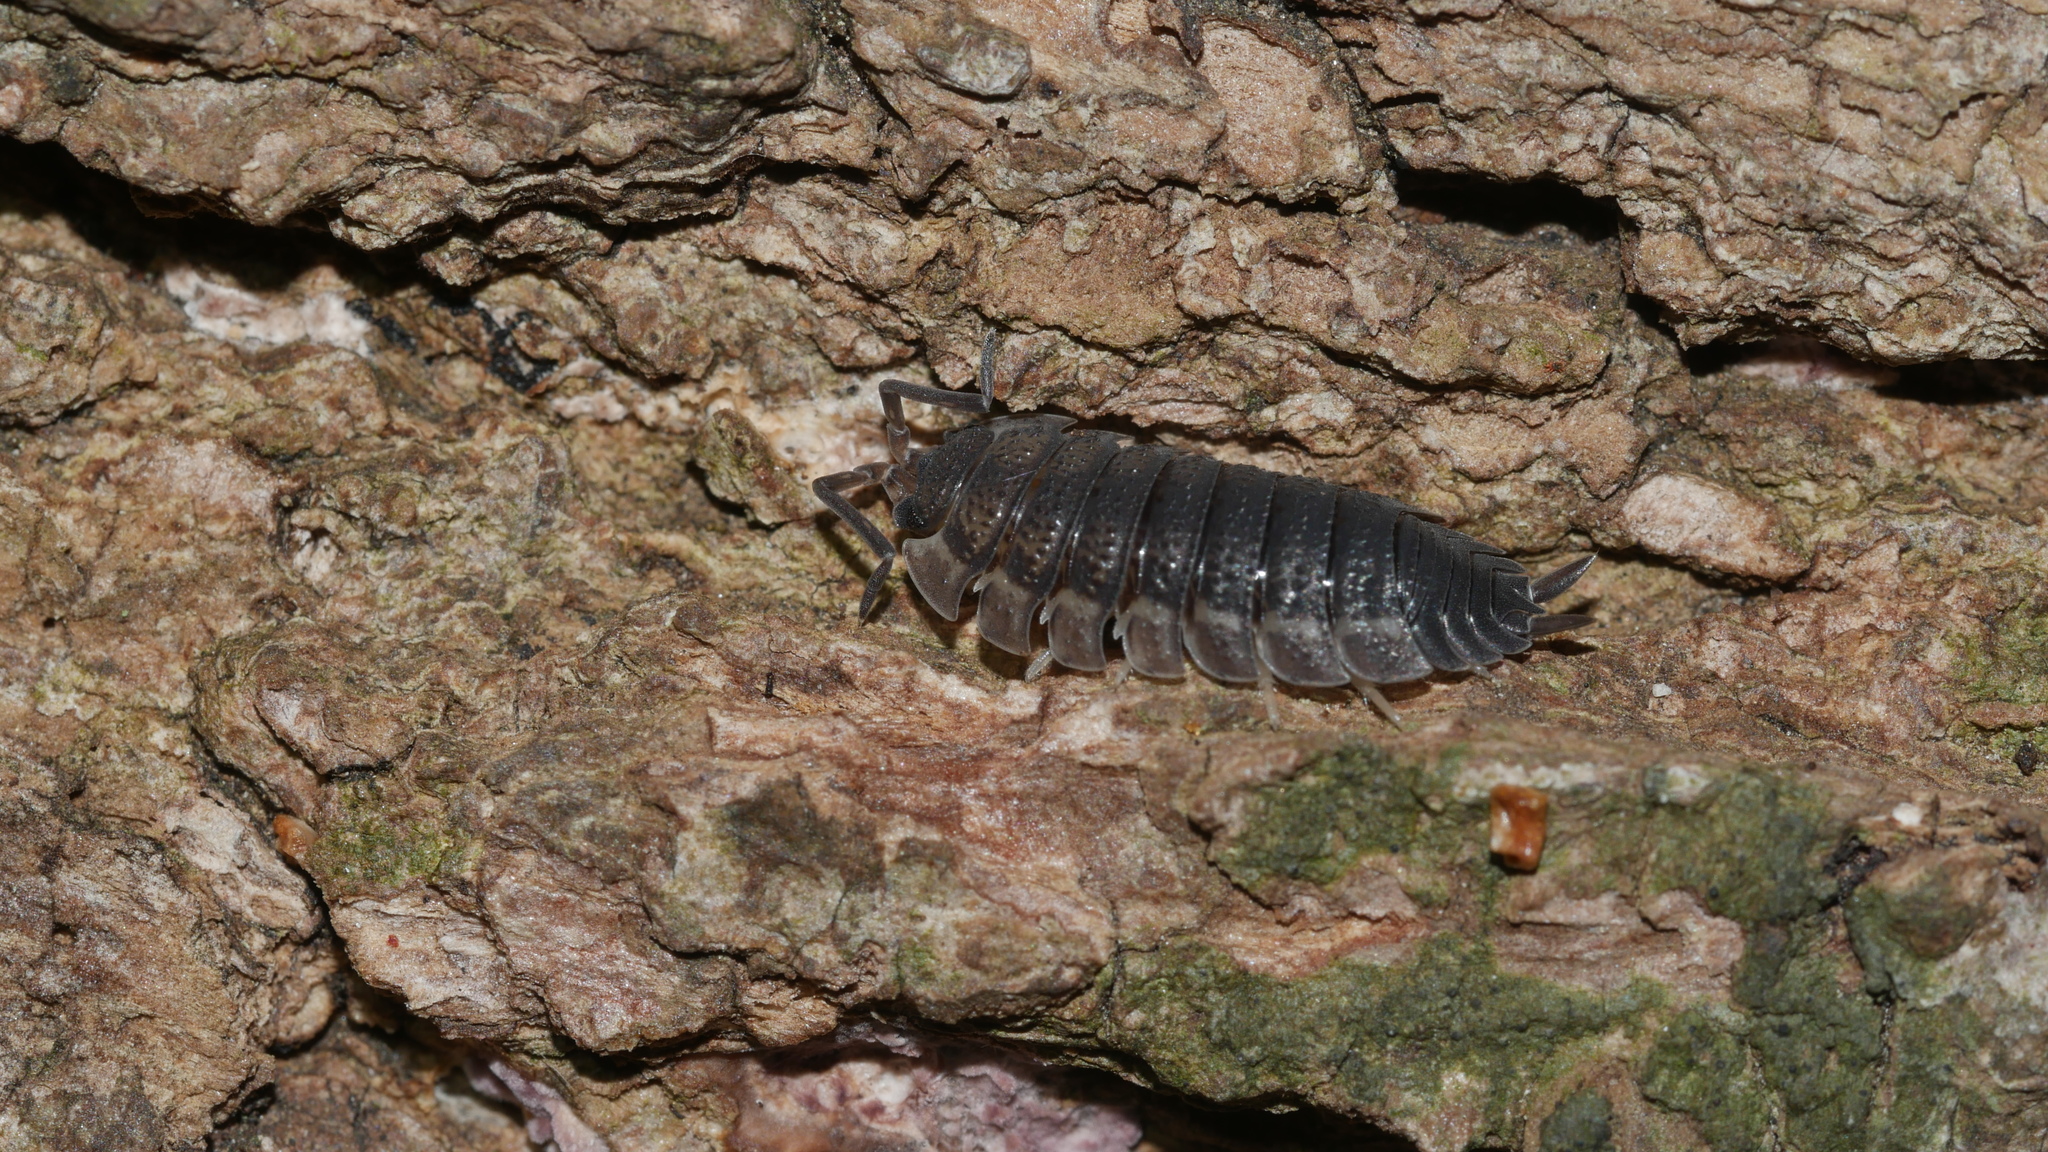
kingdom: Animalia
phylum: Arthropoda
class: Malacostraca
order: Isopoda
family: Porcellionidae
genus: Porcellio
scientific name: Porcellio scaber
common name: Common rough woodlouse
